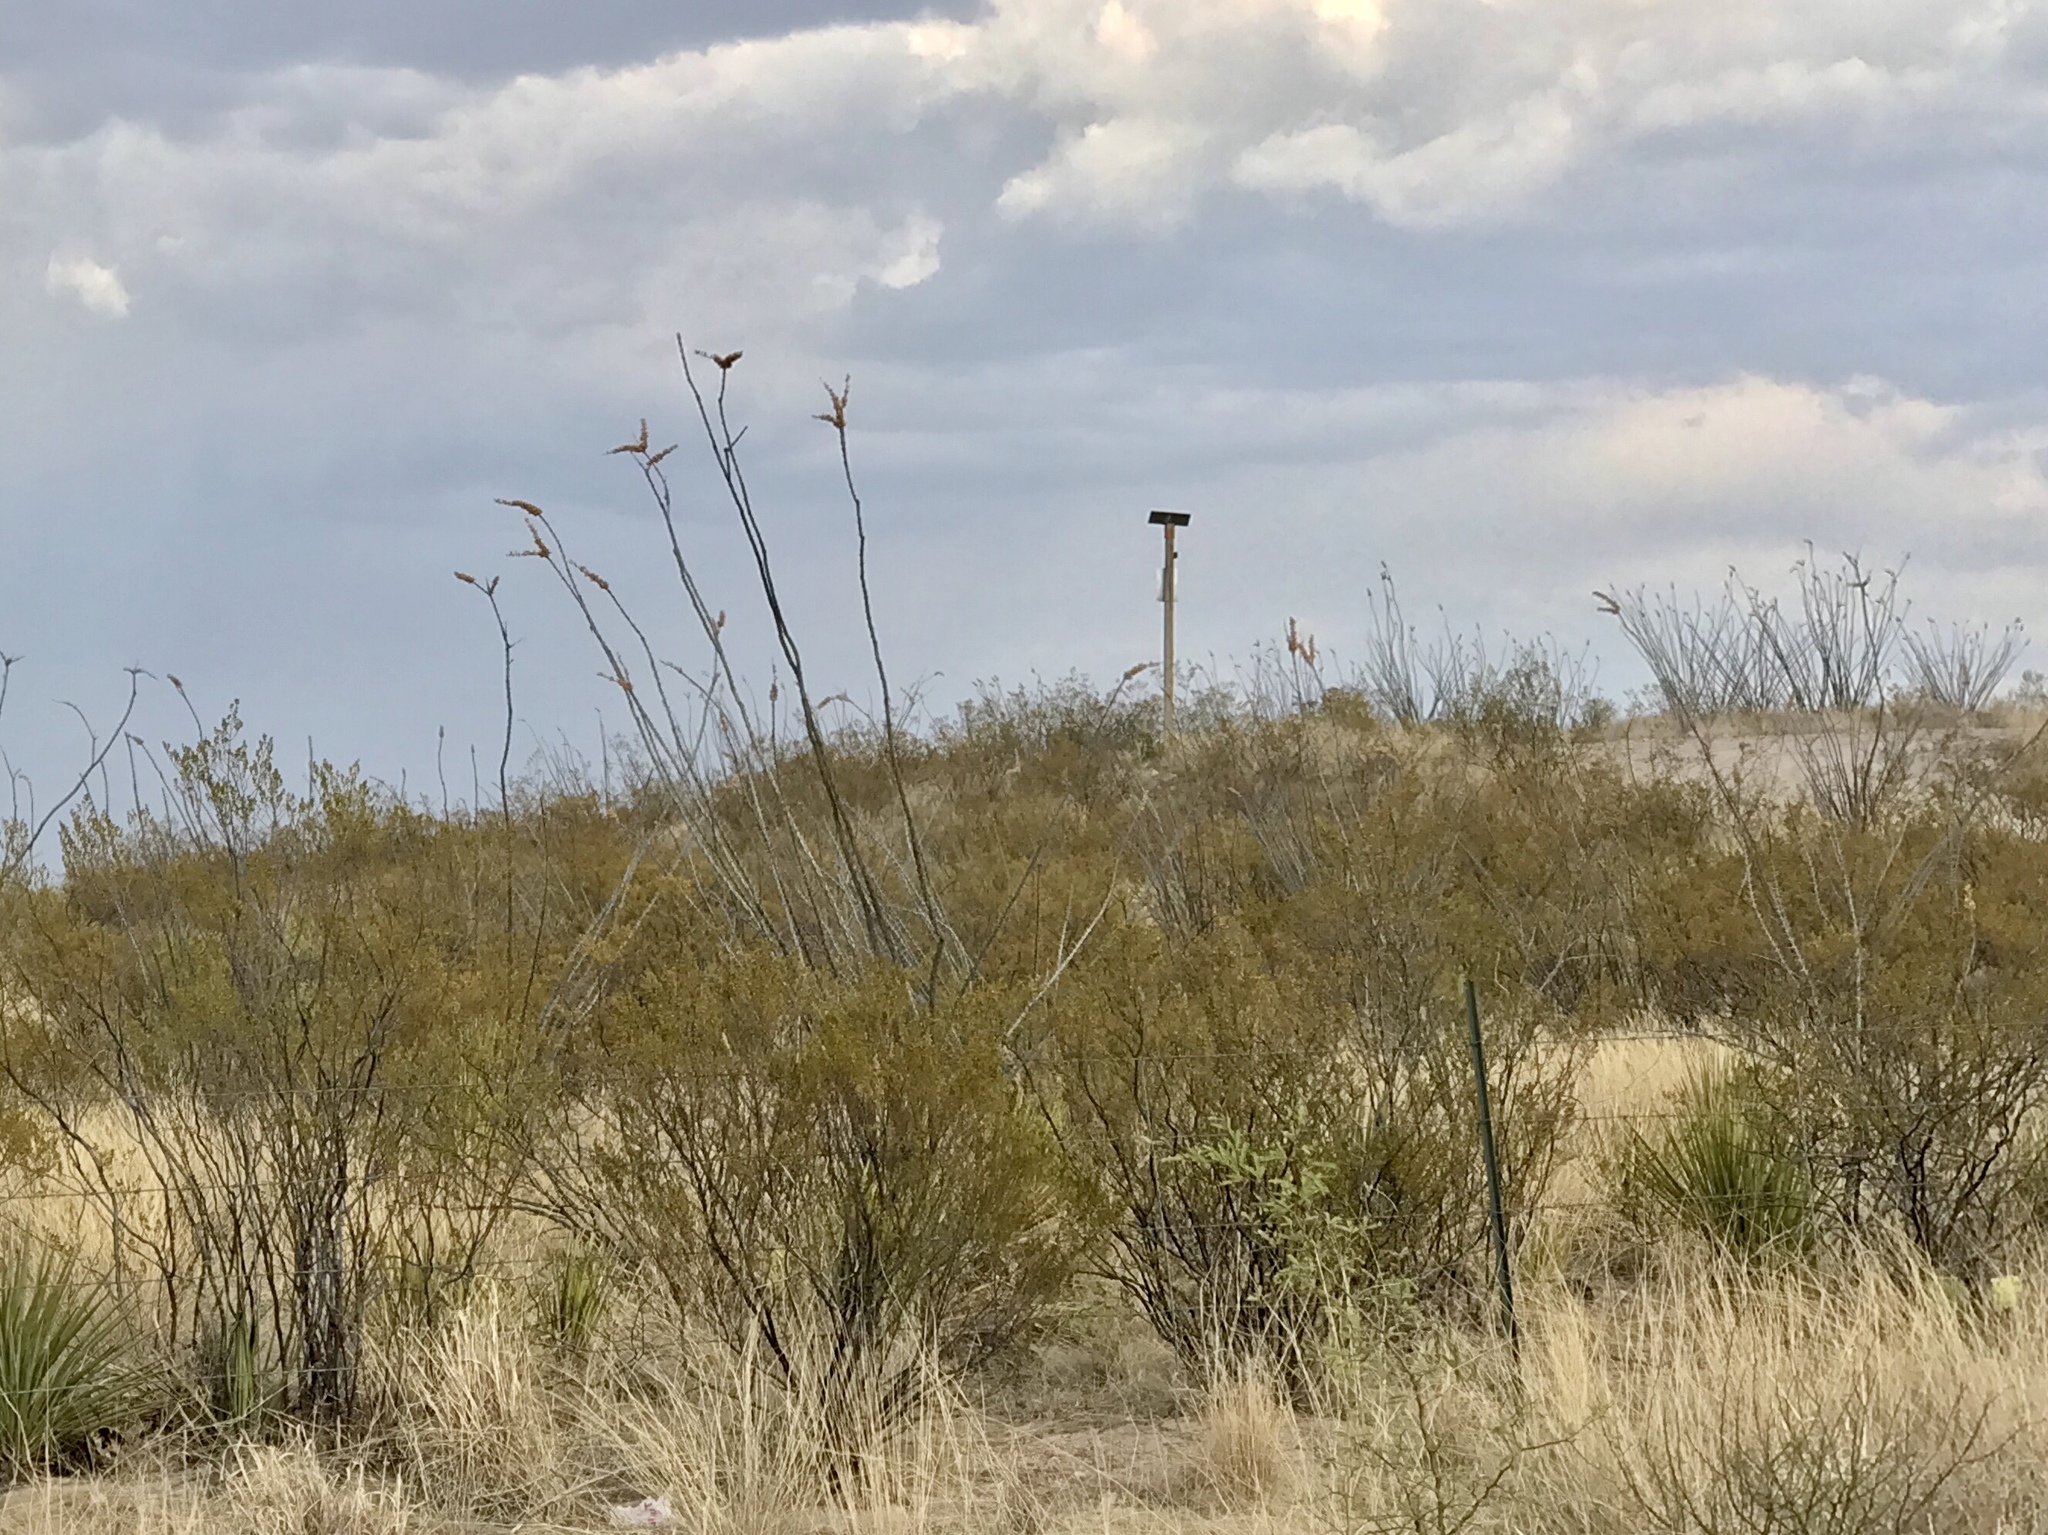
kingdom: Plantae
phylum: Tracheophyta
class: Magnoliopsida
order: Zygophyllales
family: Zygophyllaceae
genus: Larrea
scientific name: Larrea tridentata
